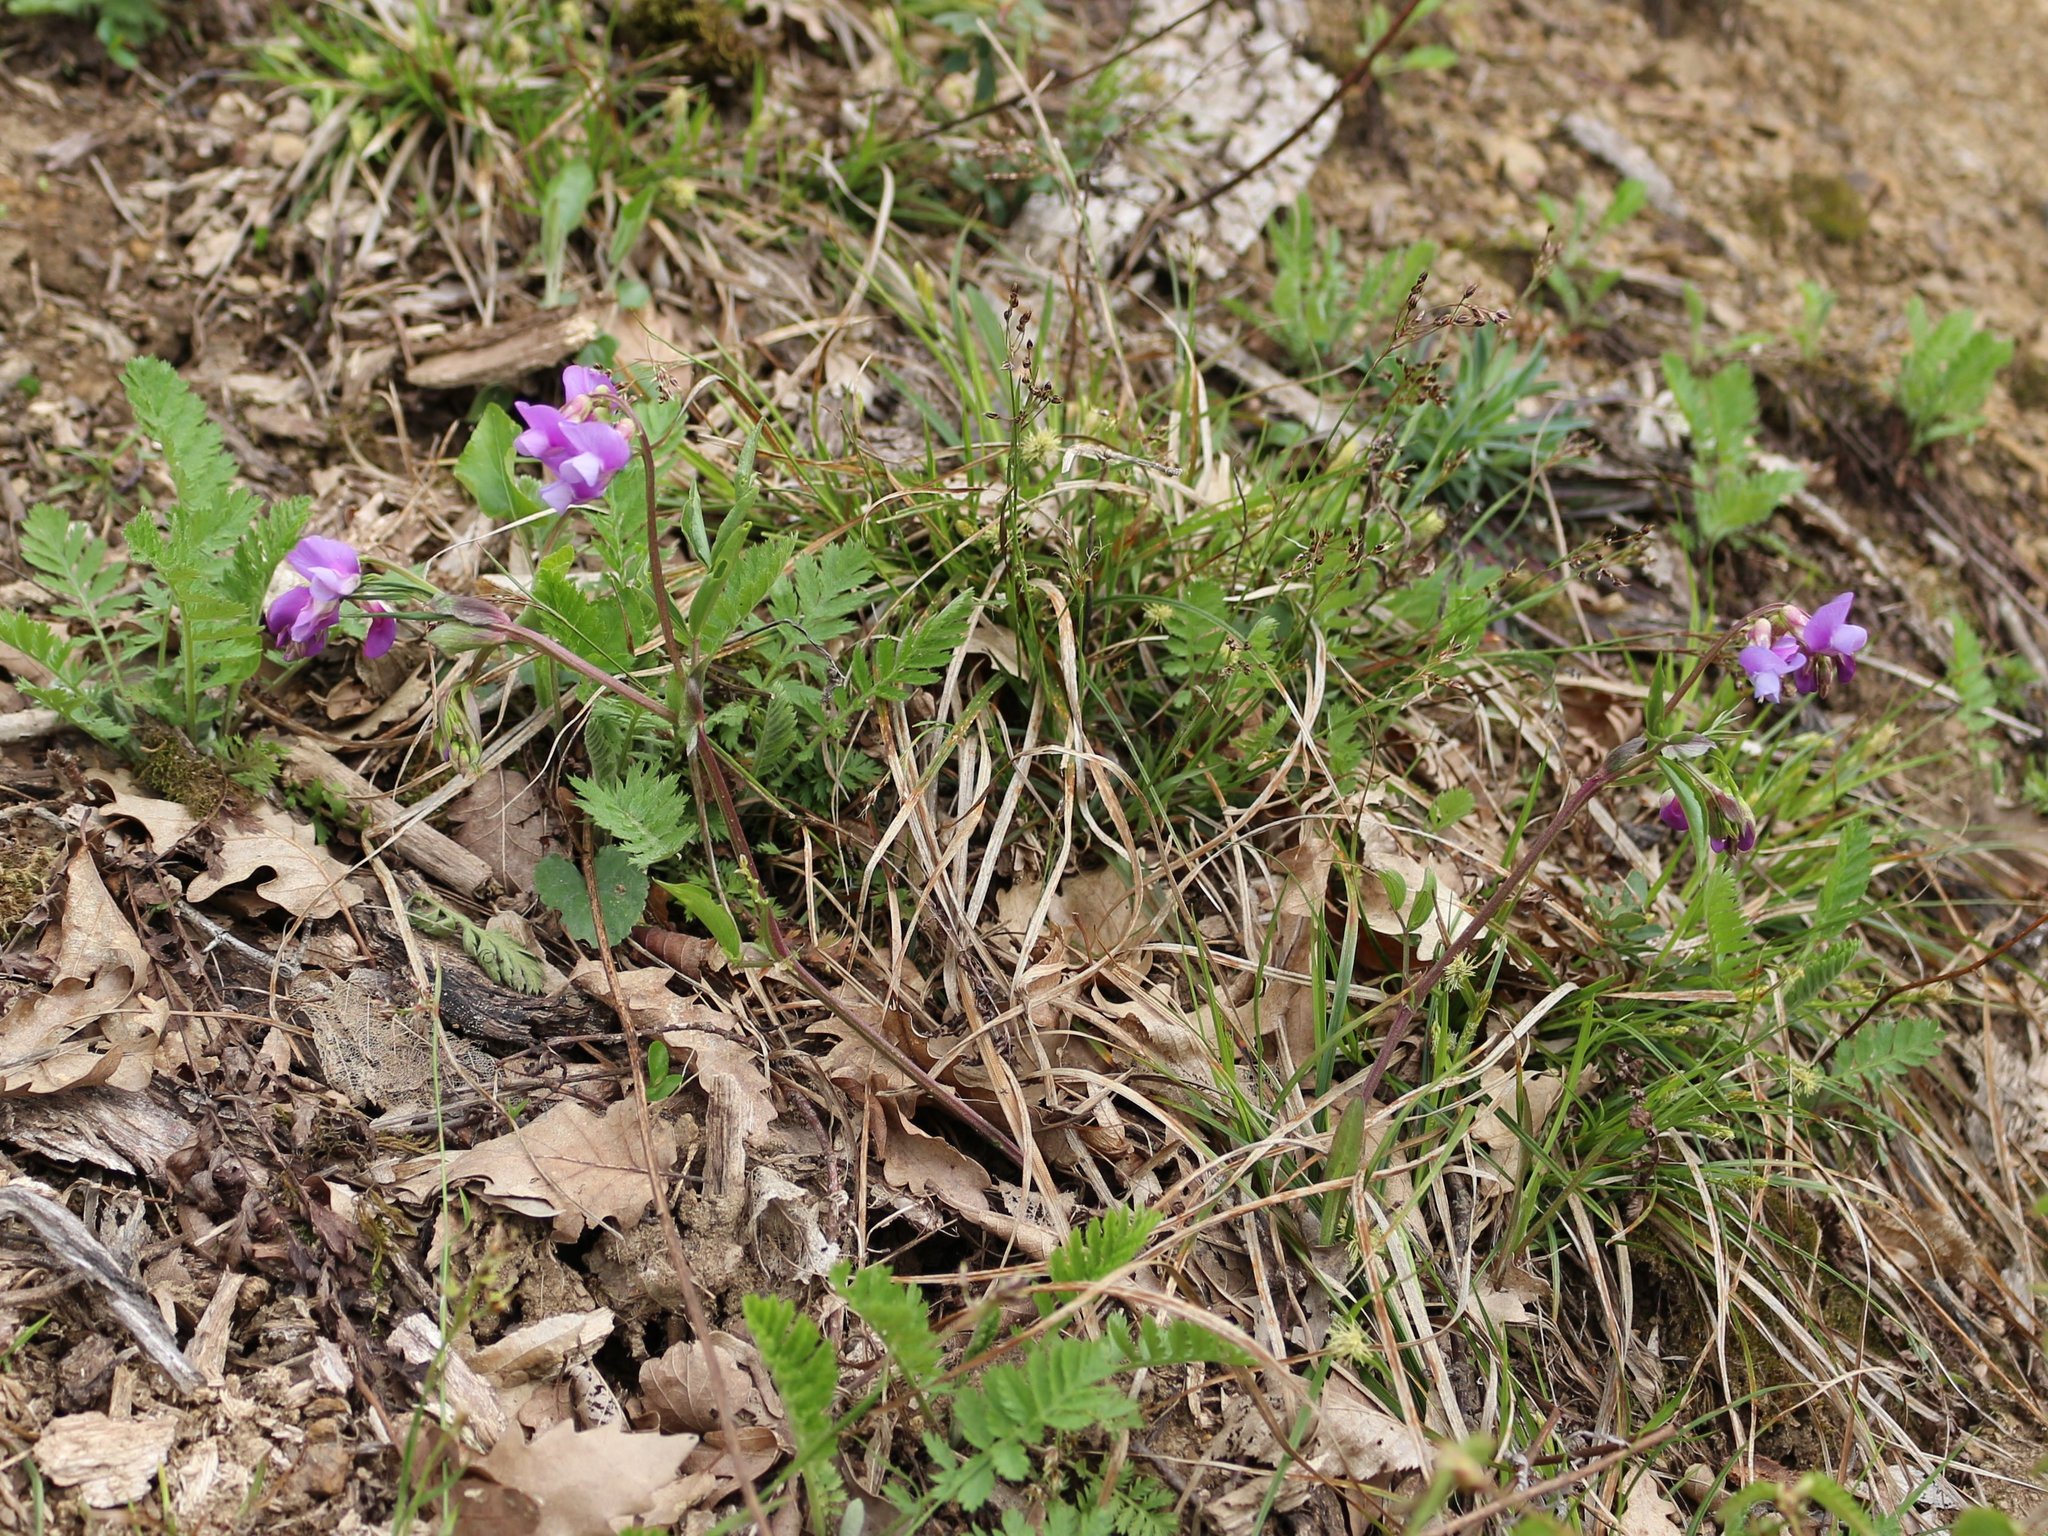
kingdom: Plantae
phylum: Tracheophyta
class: Magnoliopsida
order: Fabales
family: Fabaceae
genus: Lathyrus
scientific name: Lathyrus vernus
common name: Spring pea
